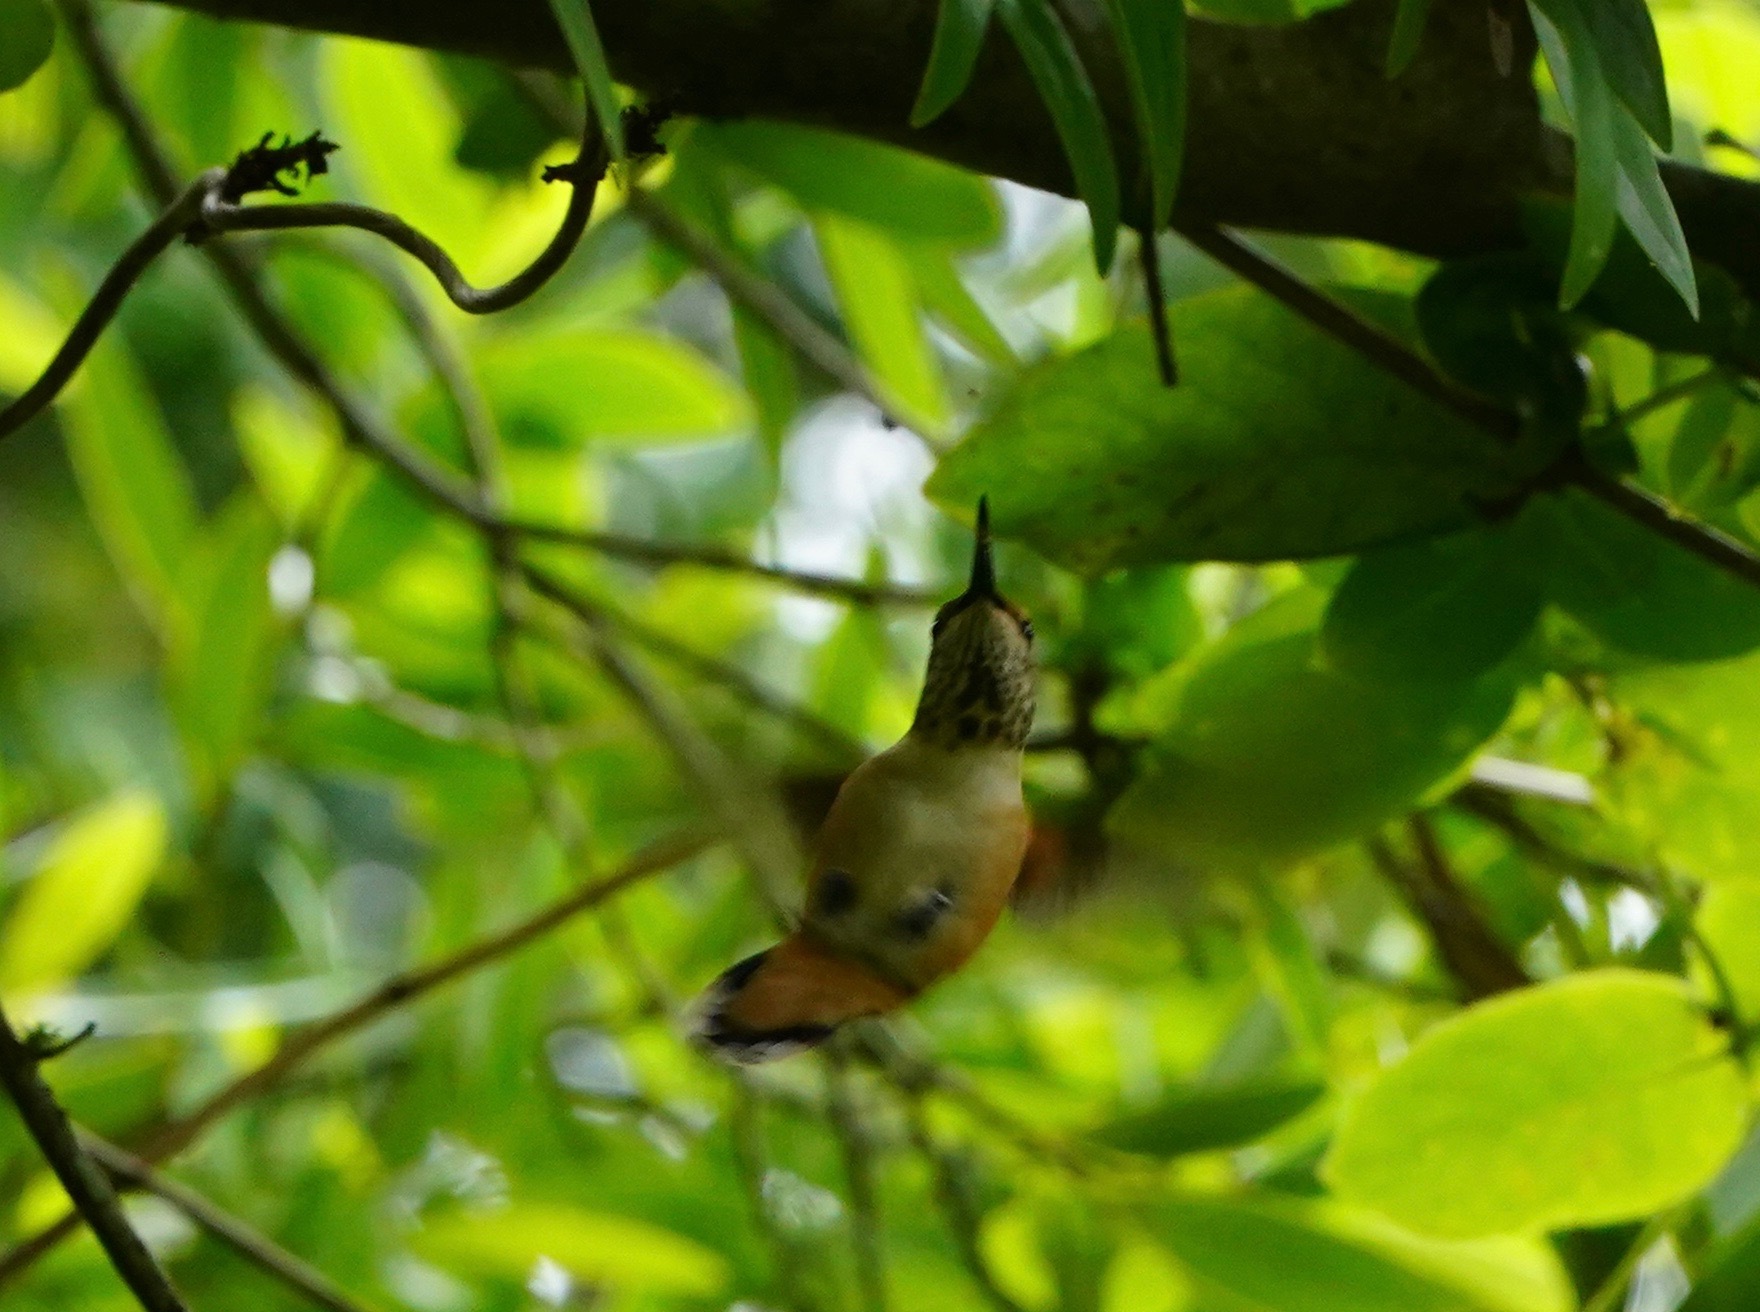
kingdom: Animalia
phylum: Chordata
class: Aves
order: Apodiformes
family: Trochilidae
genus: Selasphorus
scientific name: Selasphorus sasin
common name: Allen's hummingbird
